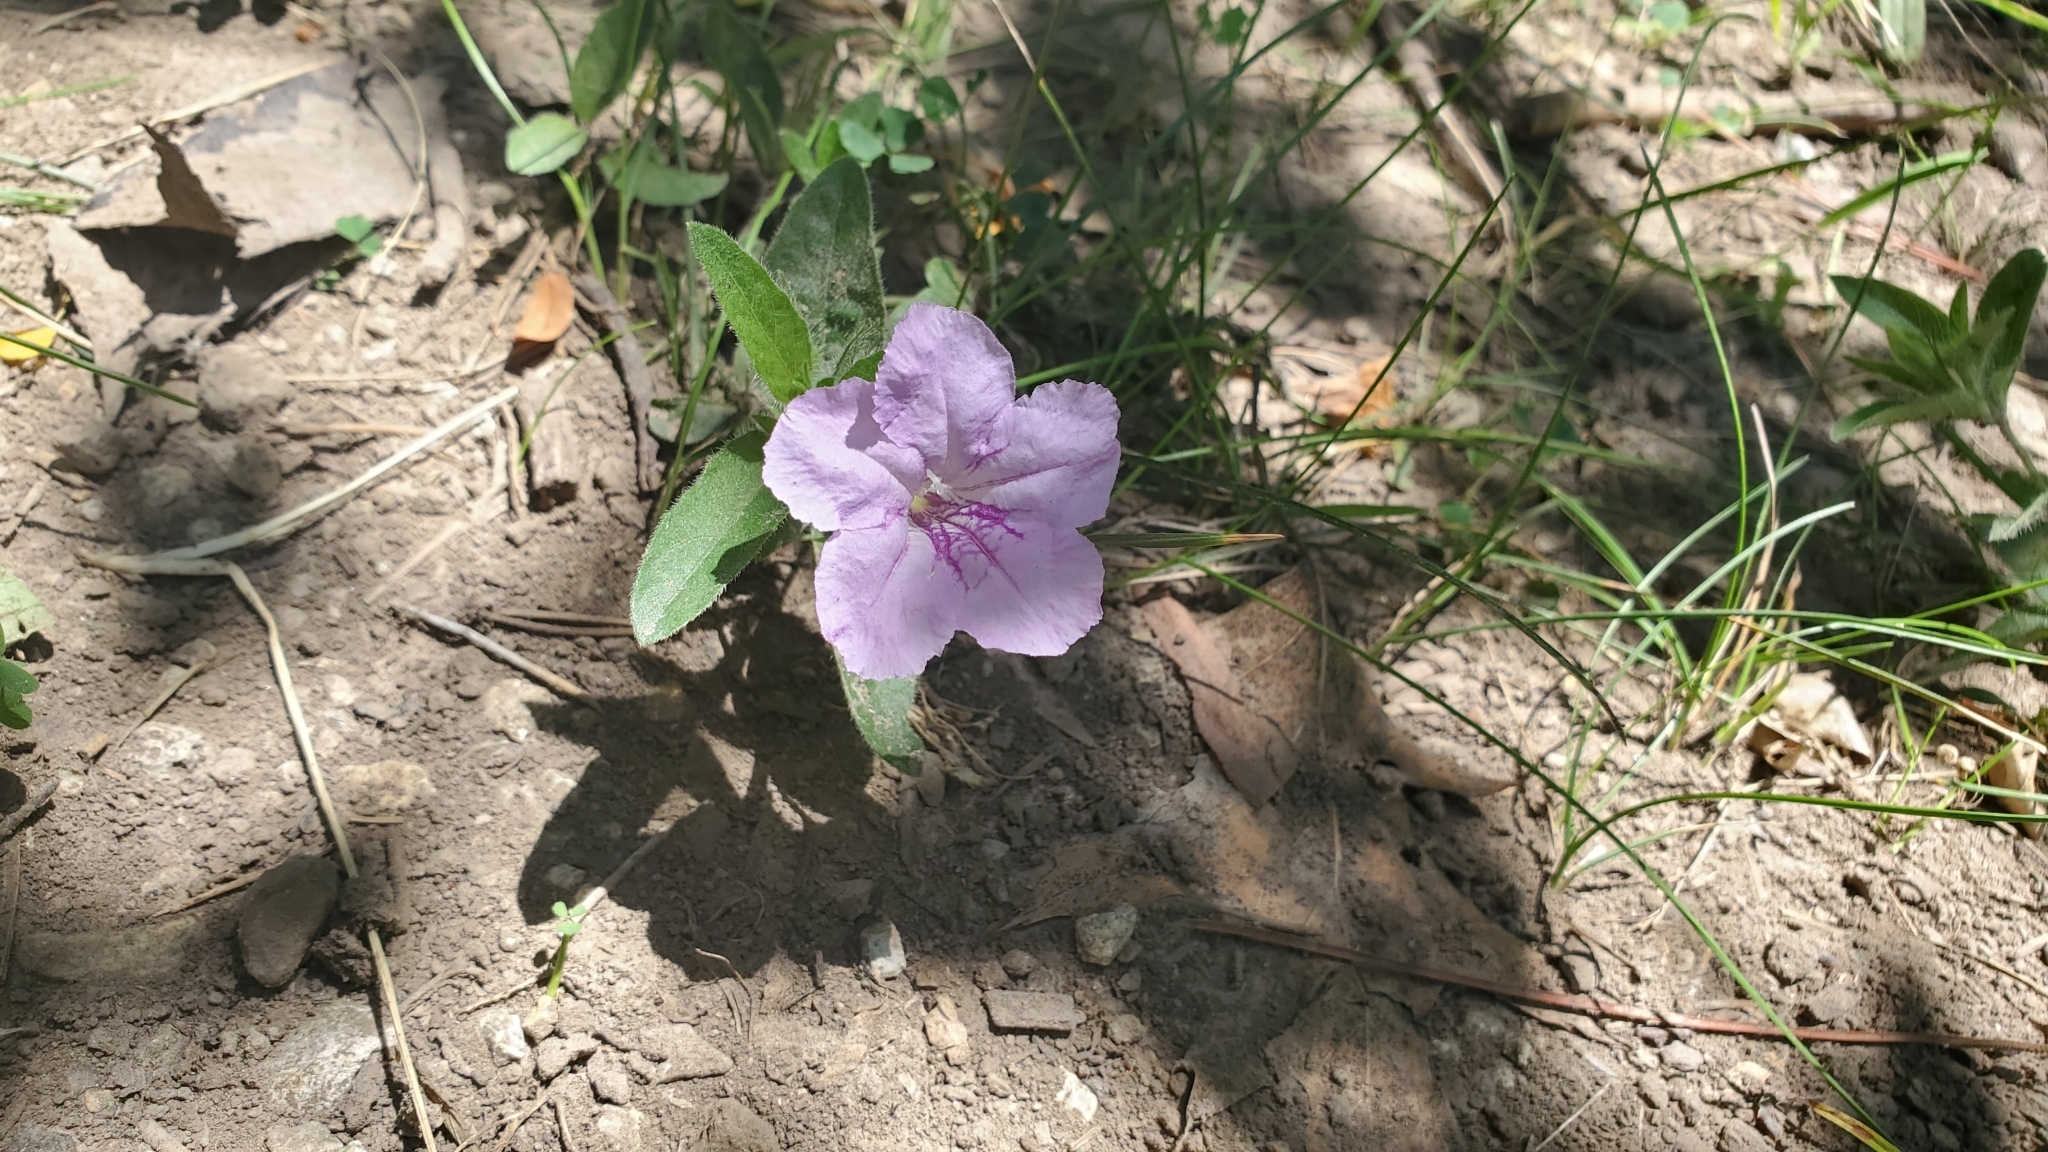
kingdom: Plantae
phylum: Tracheophyta
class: Magnoliopsida
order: Lamiales
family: Acanthaceae
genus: Ruellia
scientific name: Ruellia humilis
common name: Fringe-leaf ruellia
